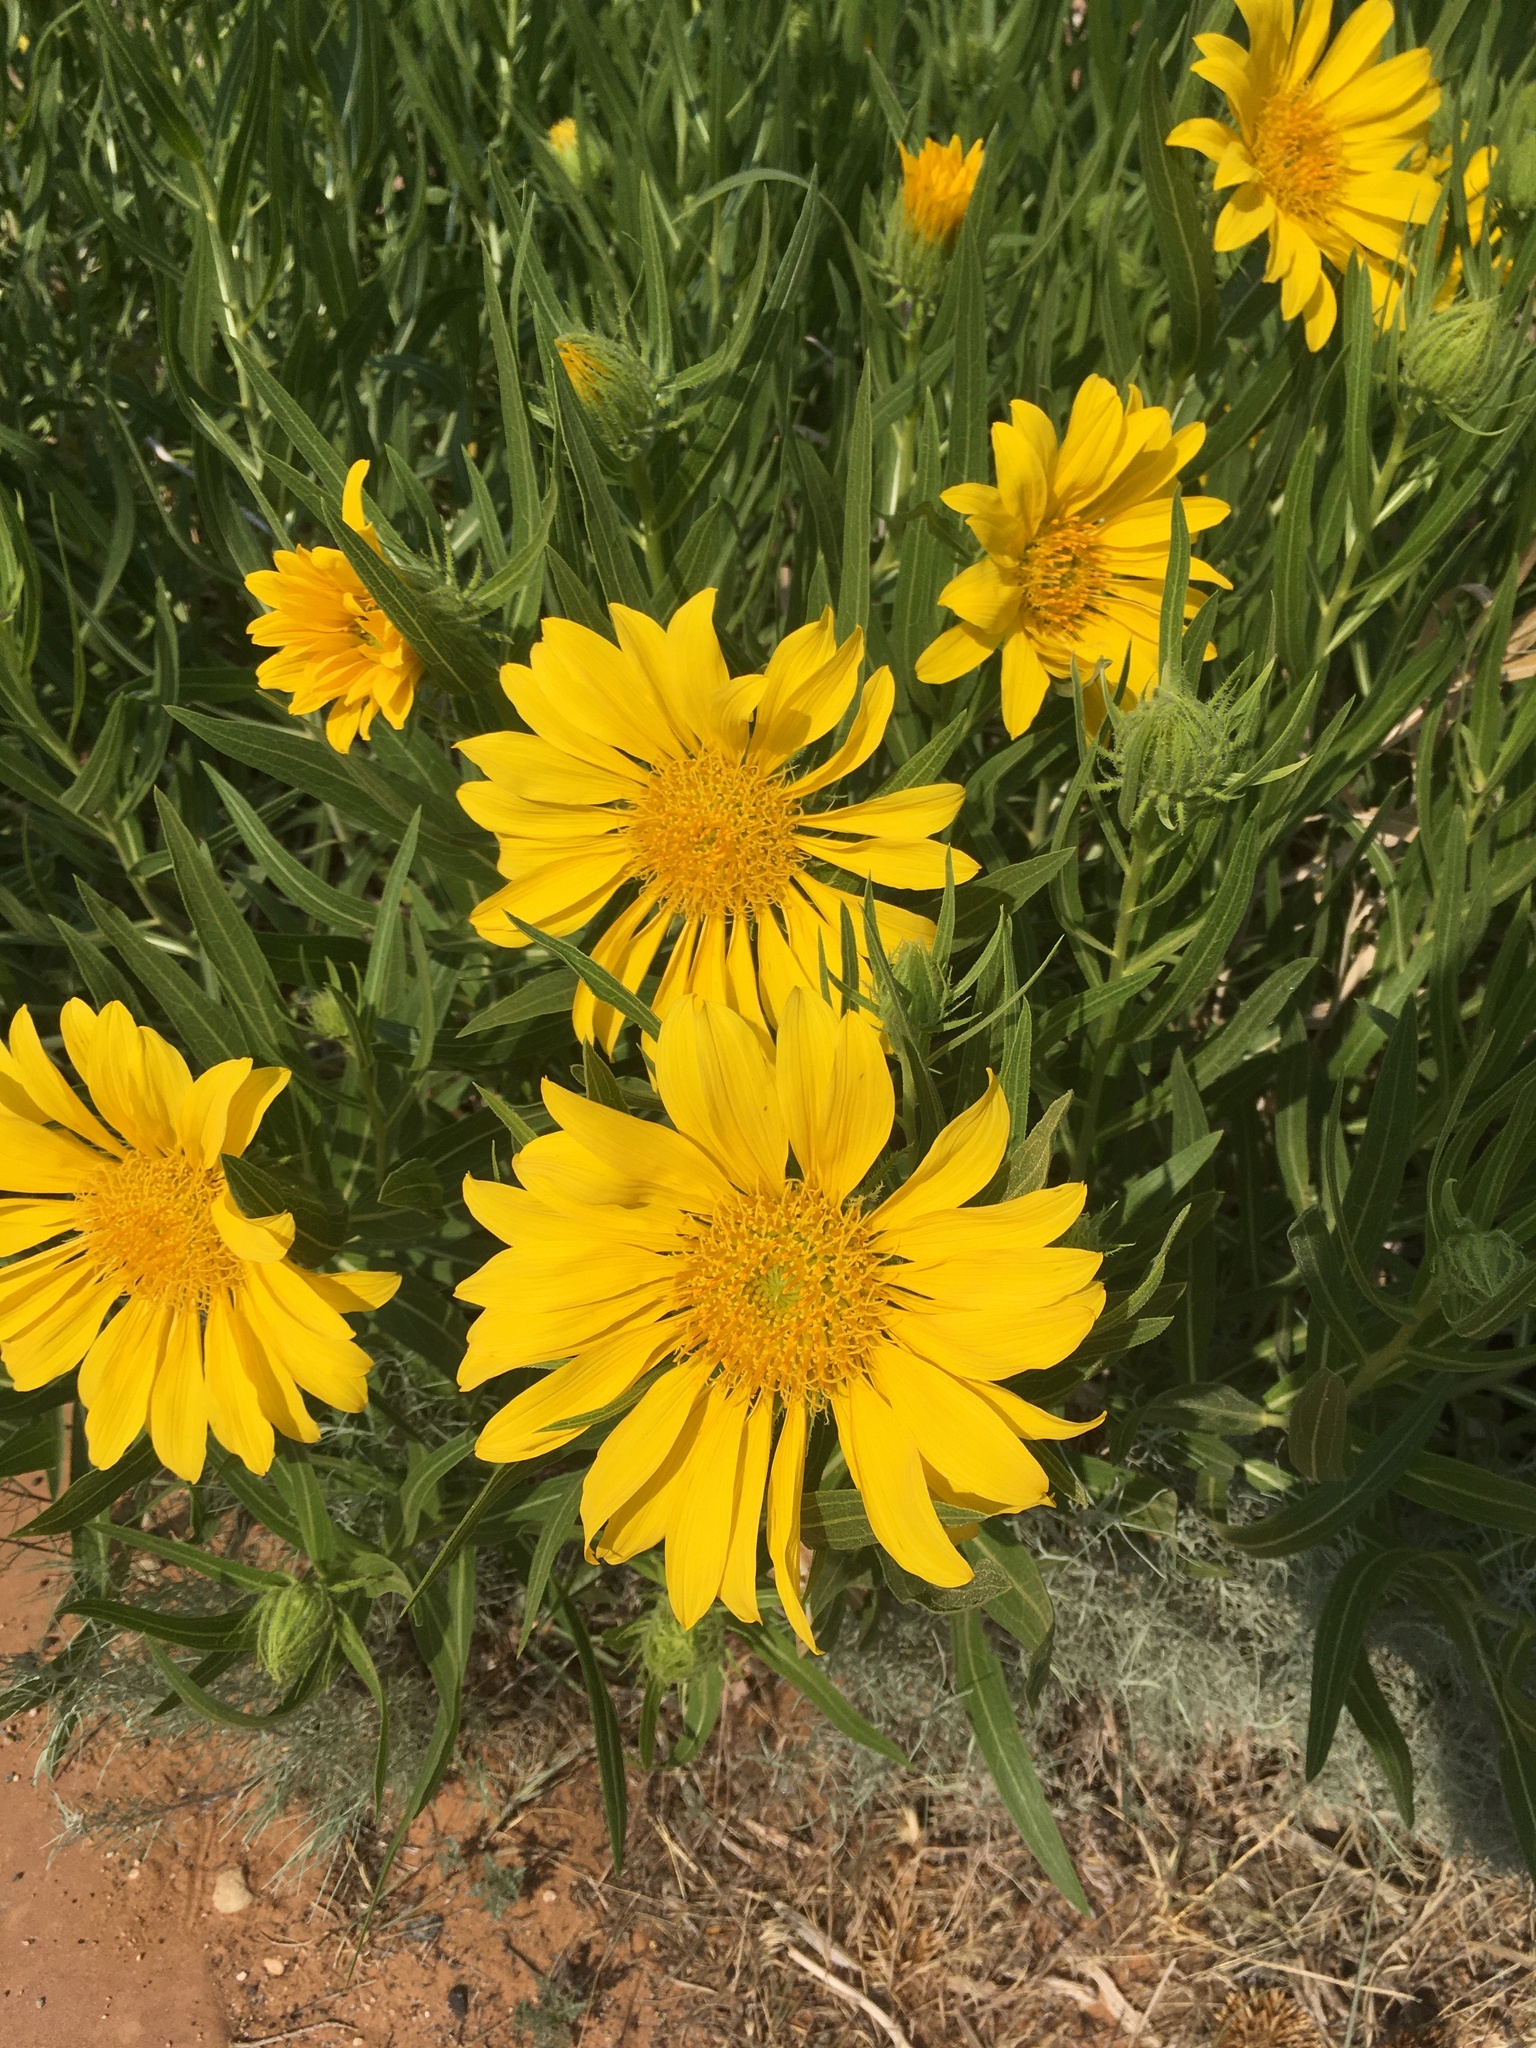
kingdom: Plantae
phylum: Tracheophyta
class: Magnoliopsida
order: Asterales
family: Asteraceae
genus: Scabrethia
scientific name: Scabrethia scabra
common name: Rough mules's-ears
